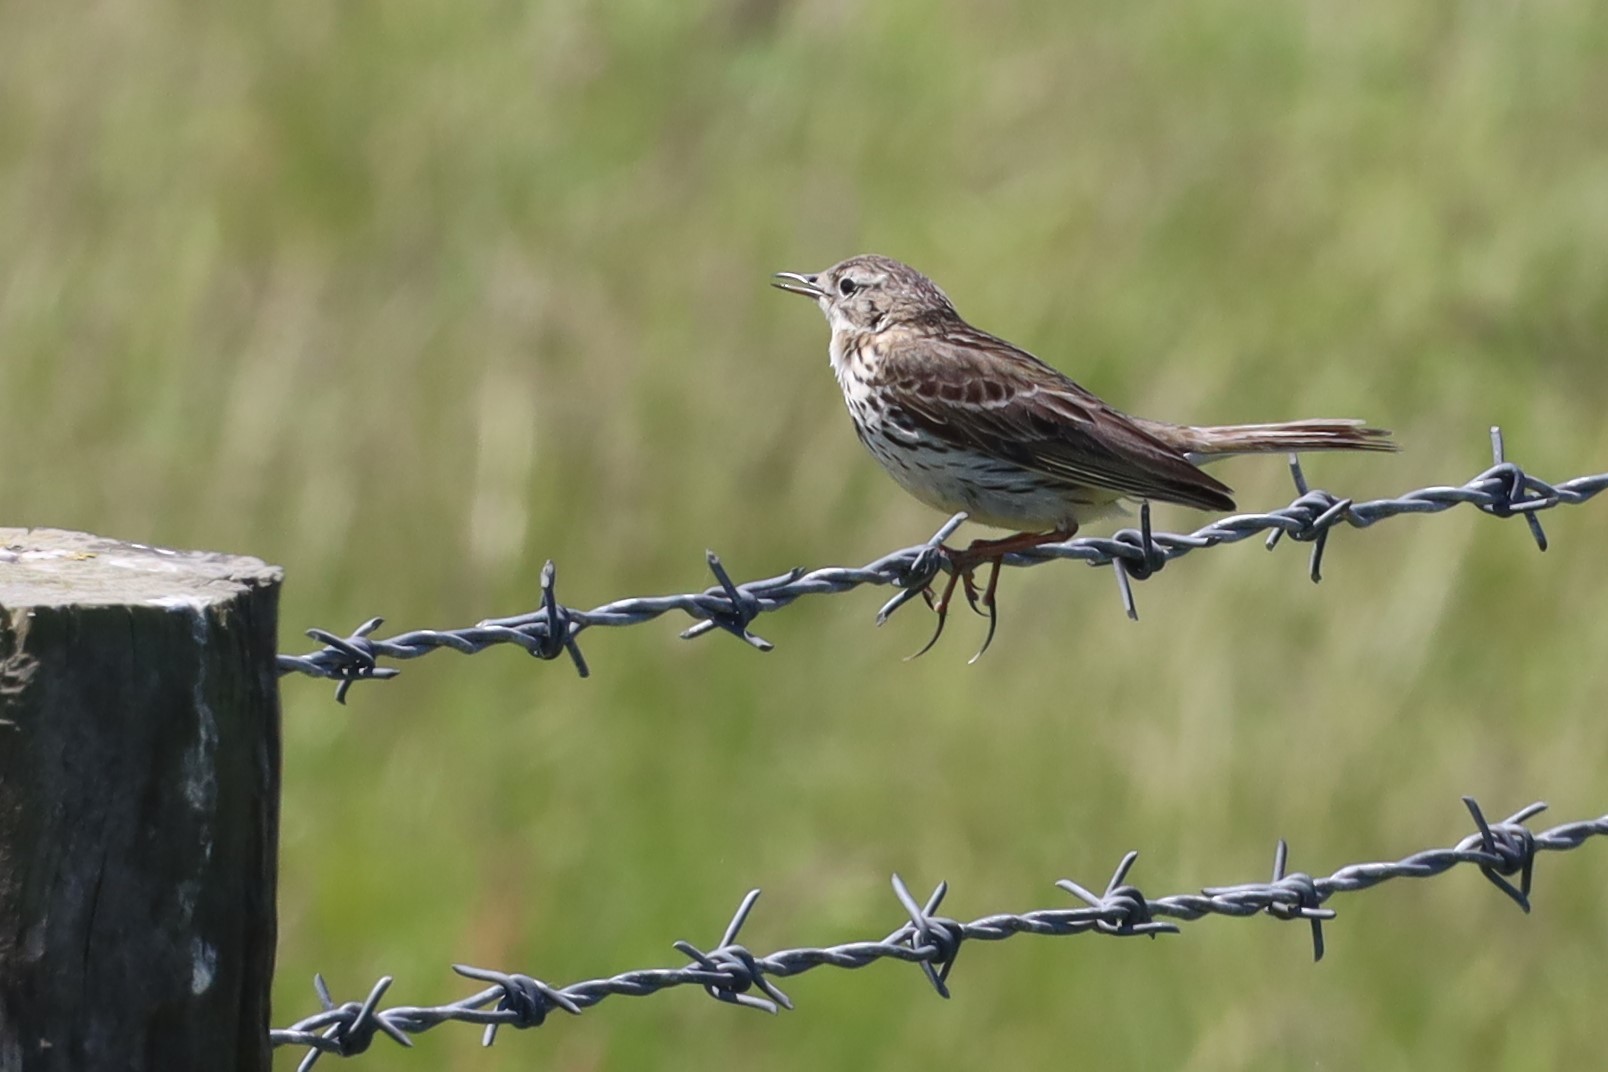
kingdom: Animalia
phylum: Chordata
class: Aves
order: Passeriformes
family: Motacillidae
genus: Anthus
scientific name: Anthus pratensis
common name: Meadow pipit
